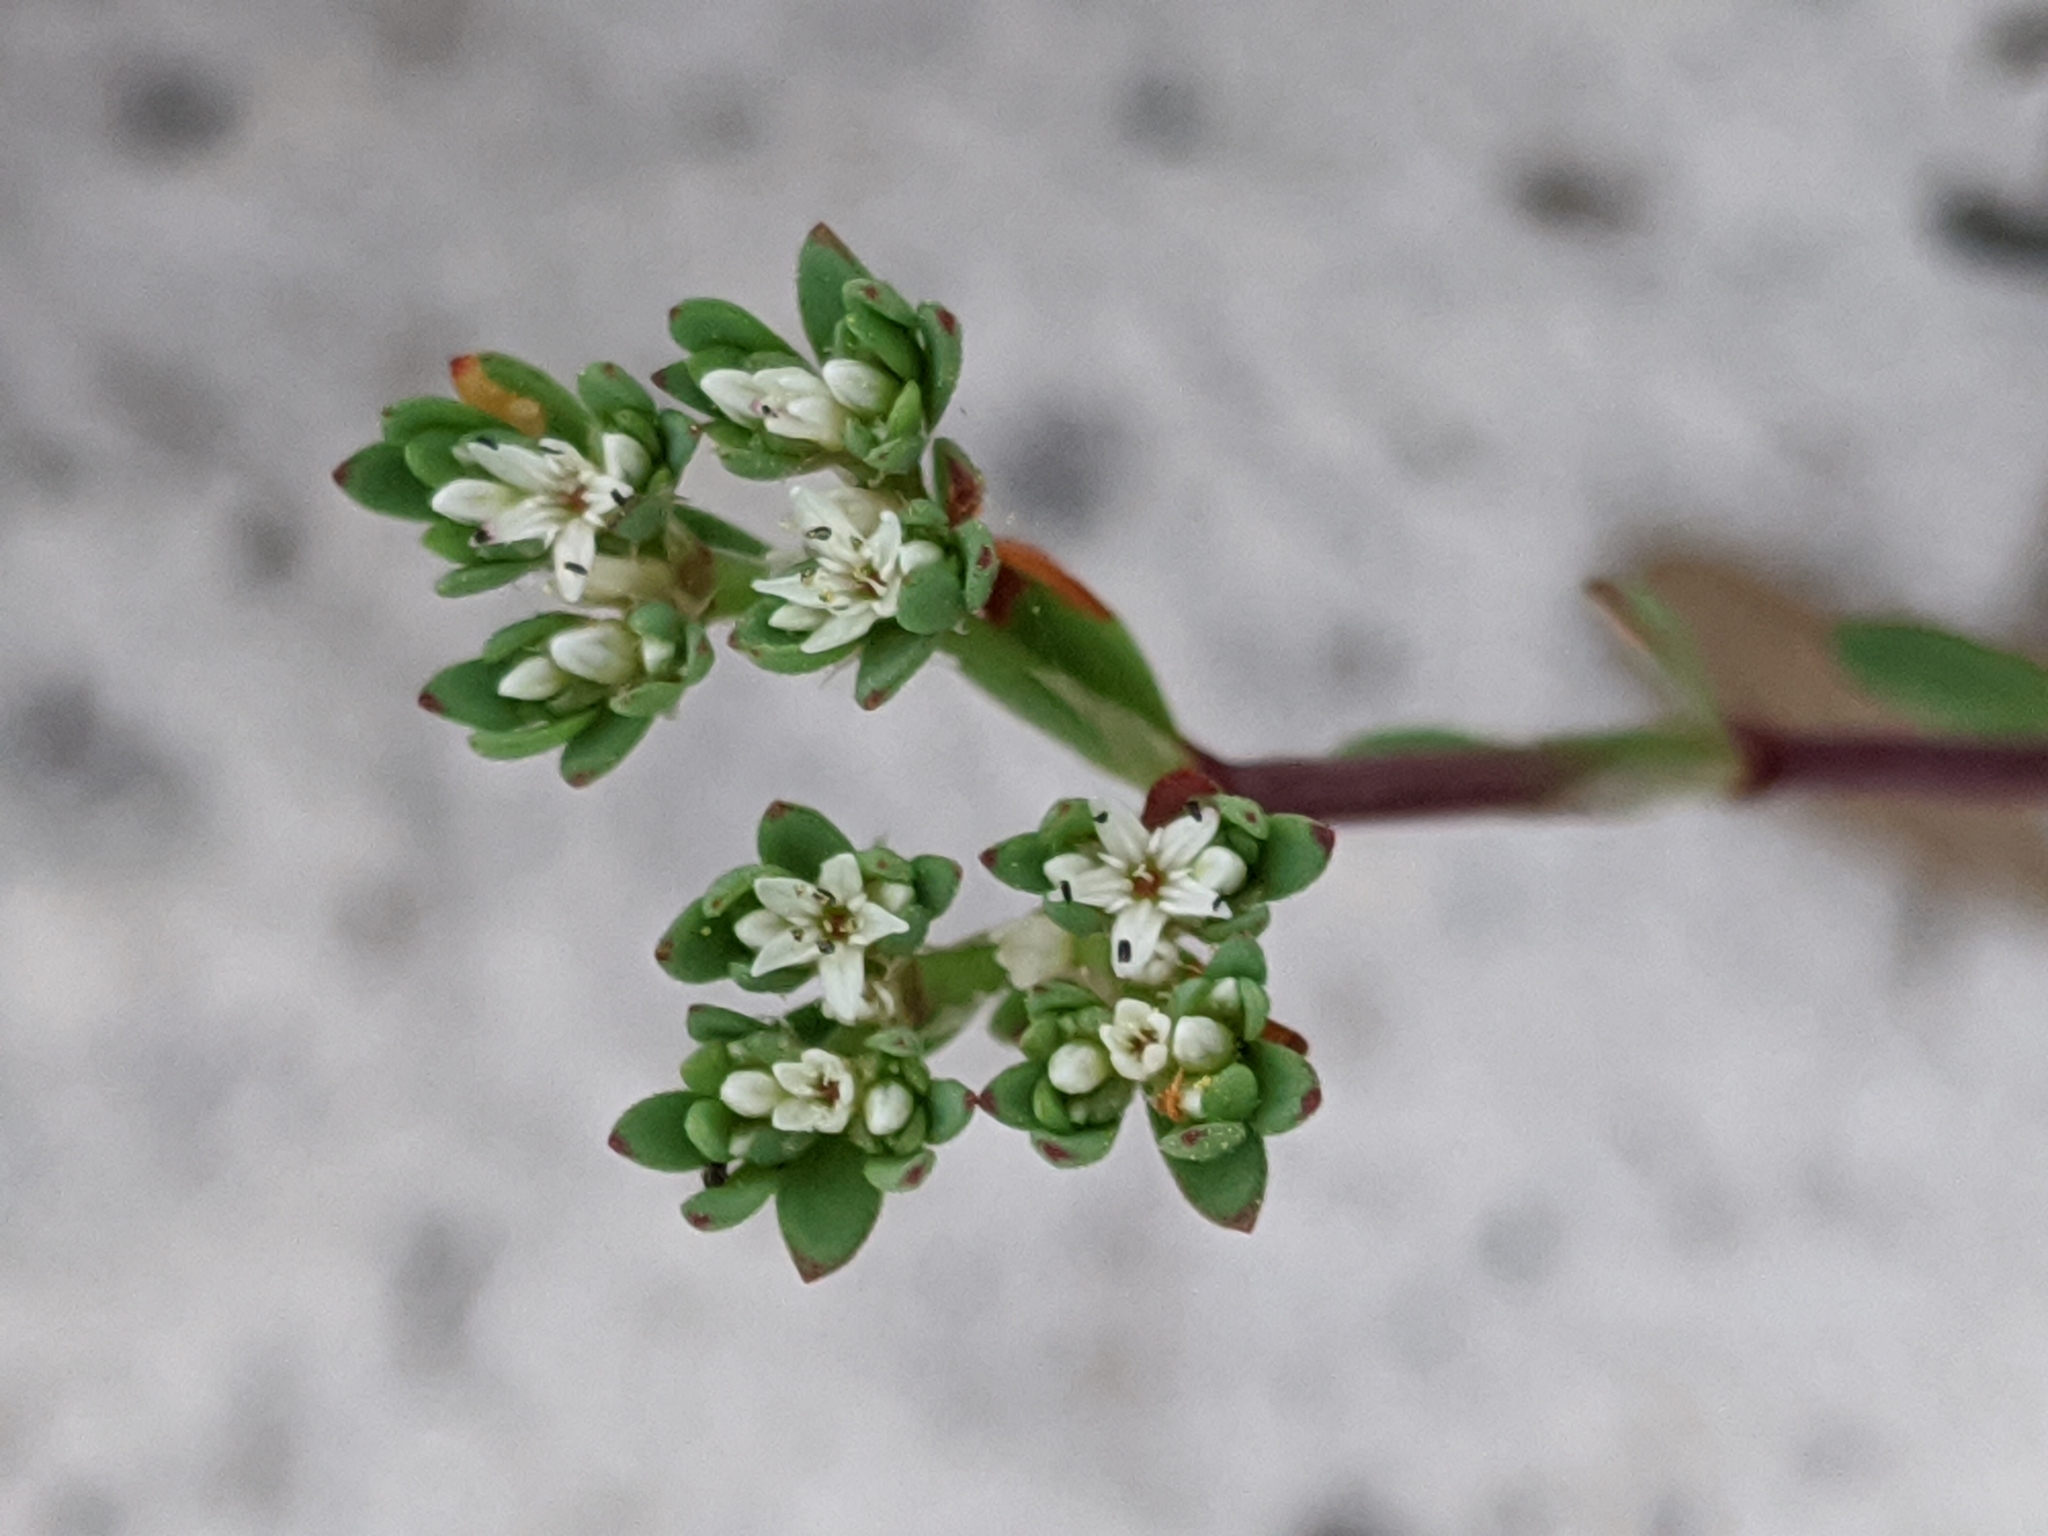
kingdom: Plantae
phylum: Tracheophyta
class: Magnoliopsida
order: Caryophyllales
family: Caryophyllaceae
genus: Paronychia
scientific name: Paronychia erecta
